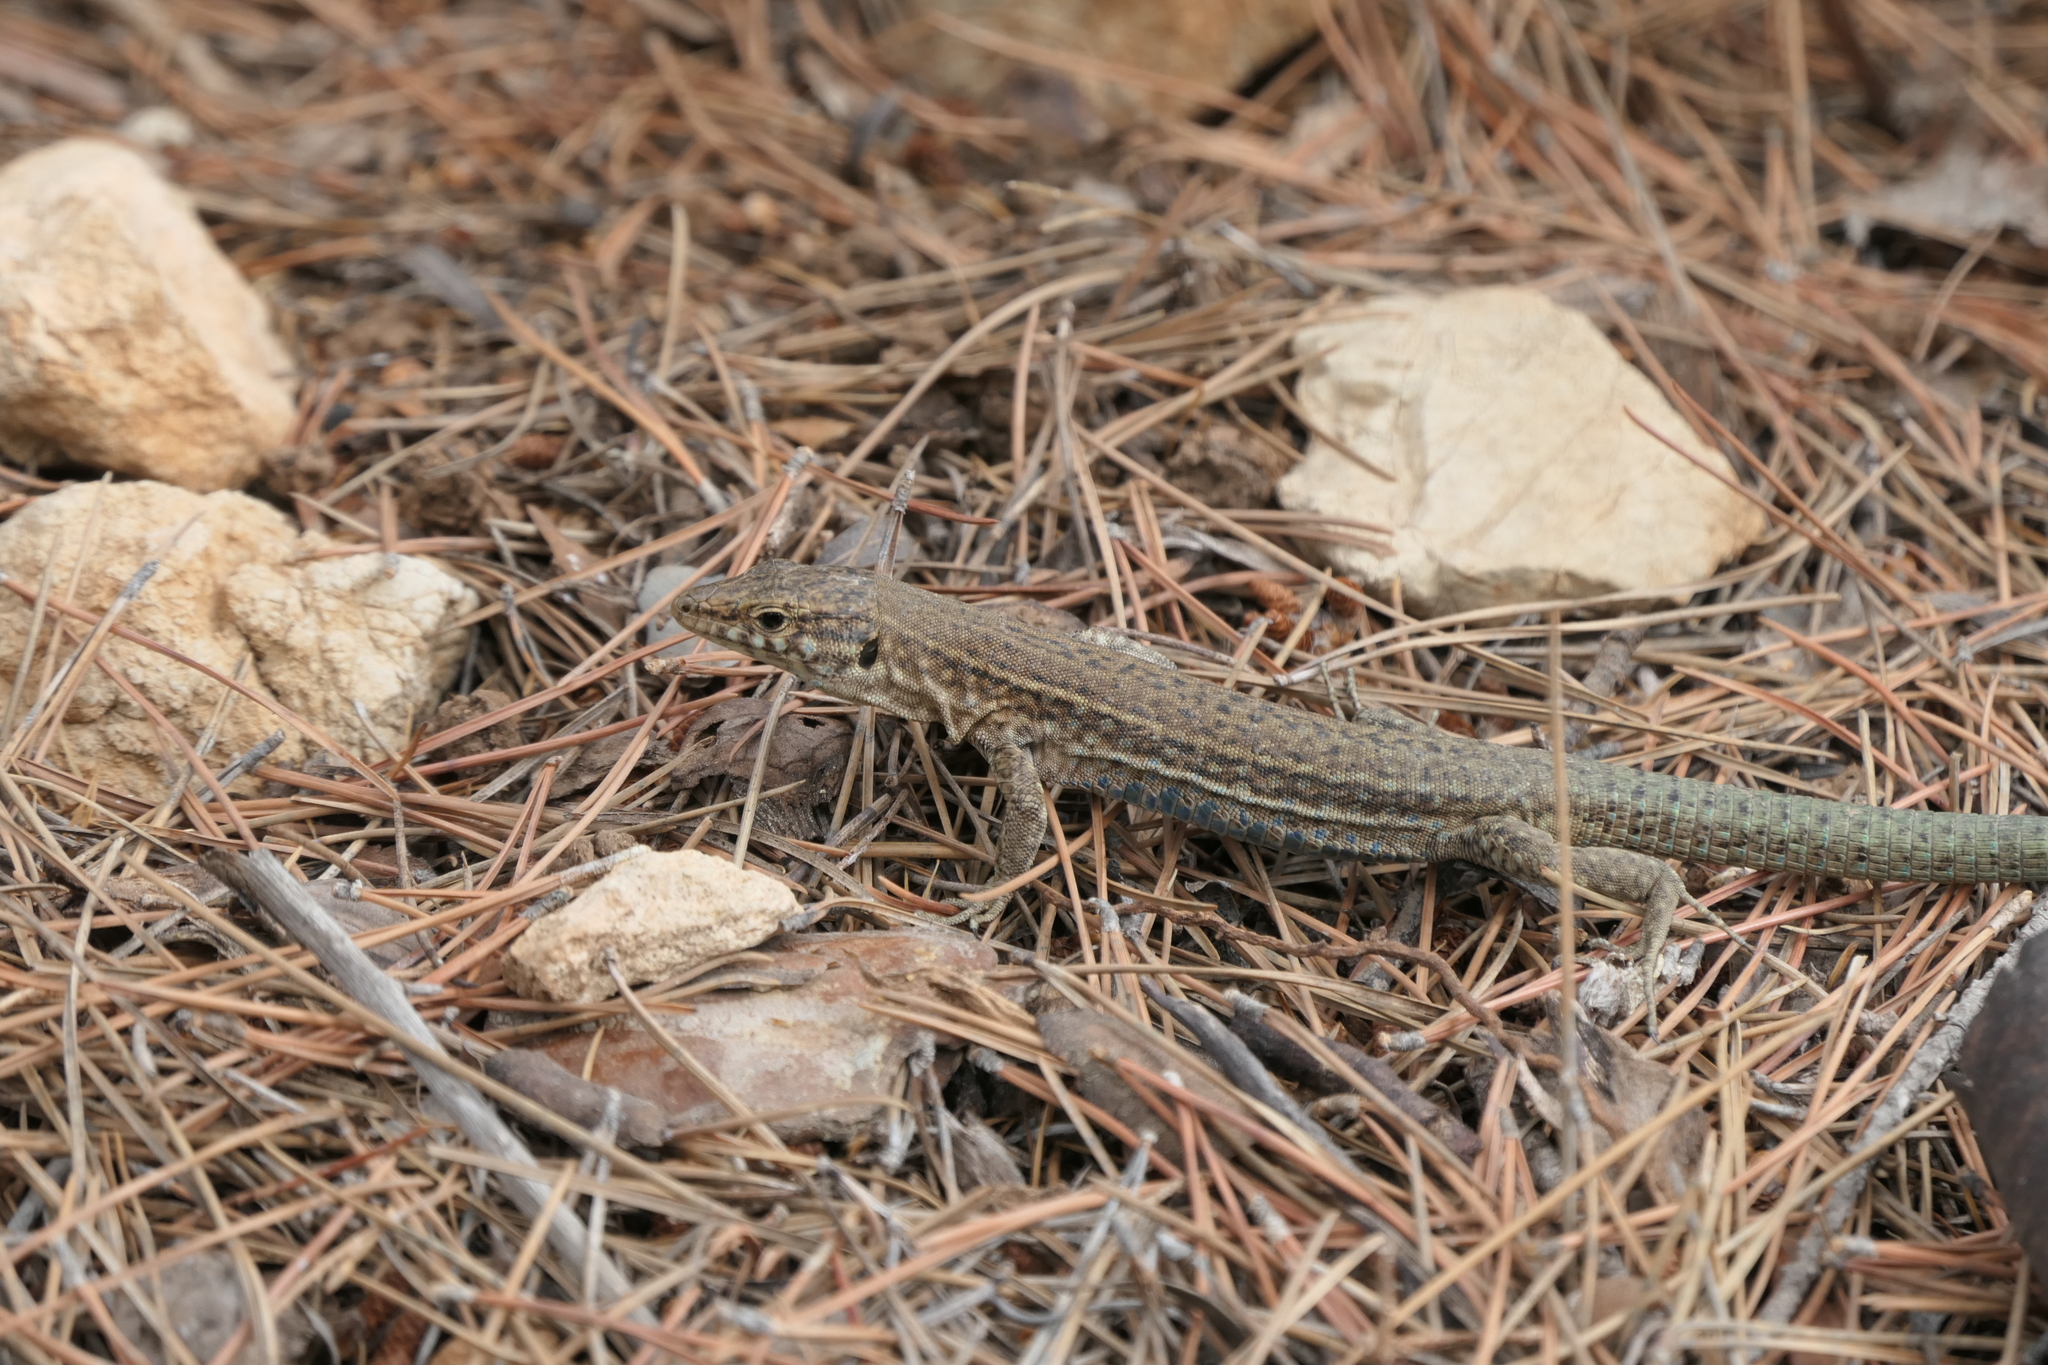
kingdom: Animalia
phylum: Chordata
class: Squamata
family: Lacertidae
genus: Podarcis
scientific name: Podarcis lilfordi
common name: Belearic lizard
